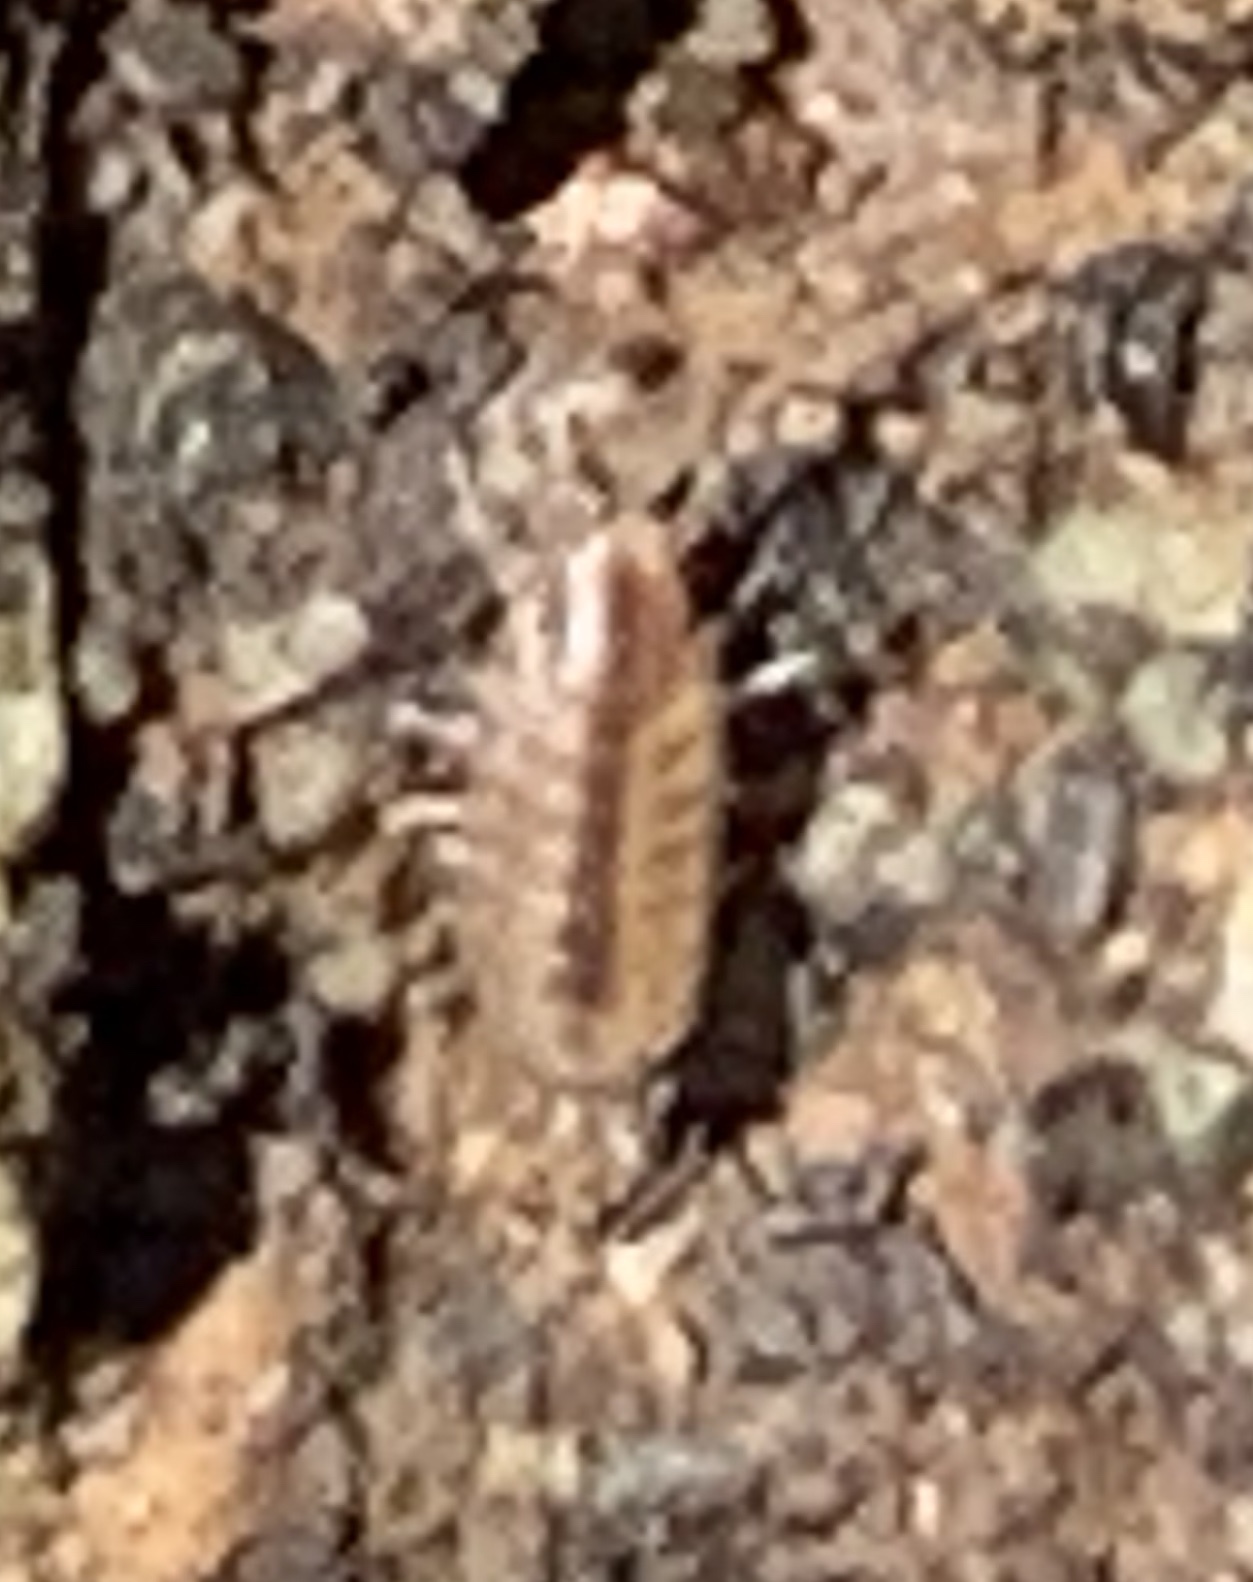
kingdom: Animalia
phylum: Arthropoda
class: Malacostraca
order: Isopoda
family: Halophilosciidae
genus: Littorophiloscia
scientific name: Littorophiloscia richardsonae
